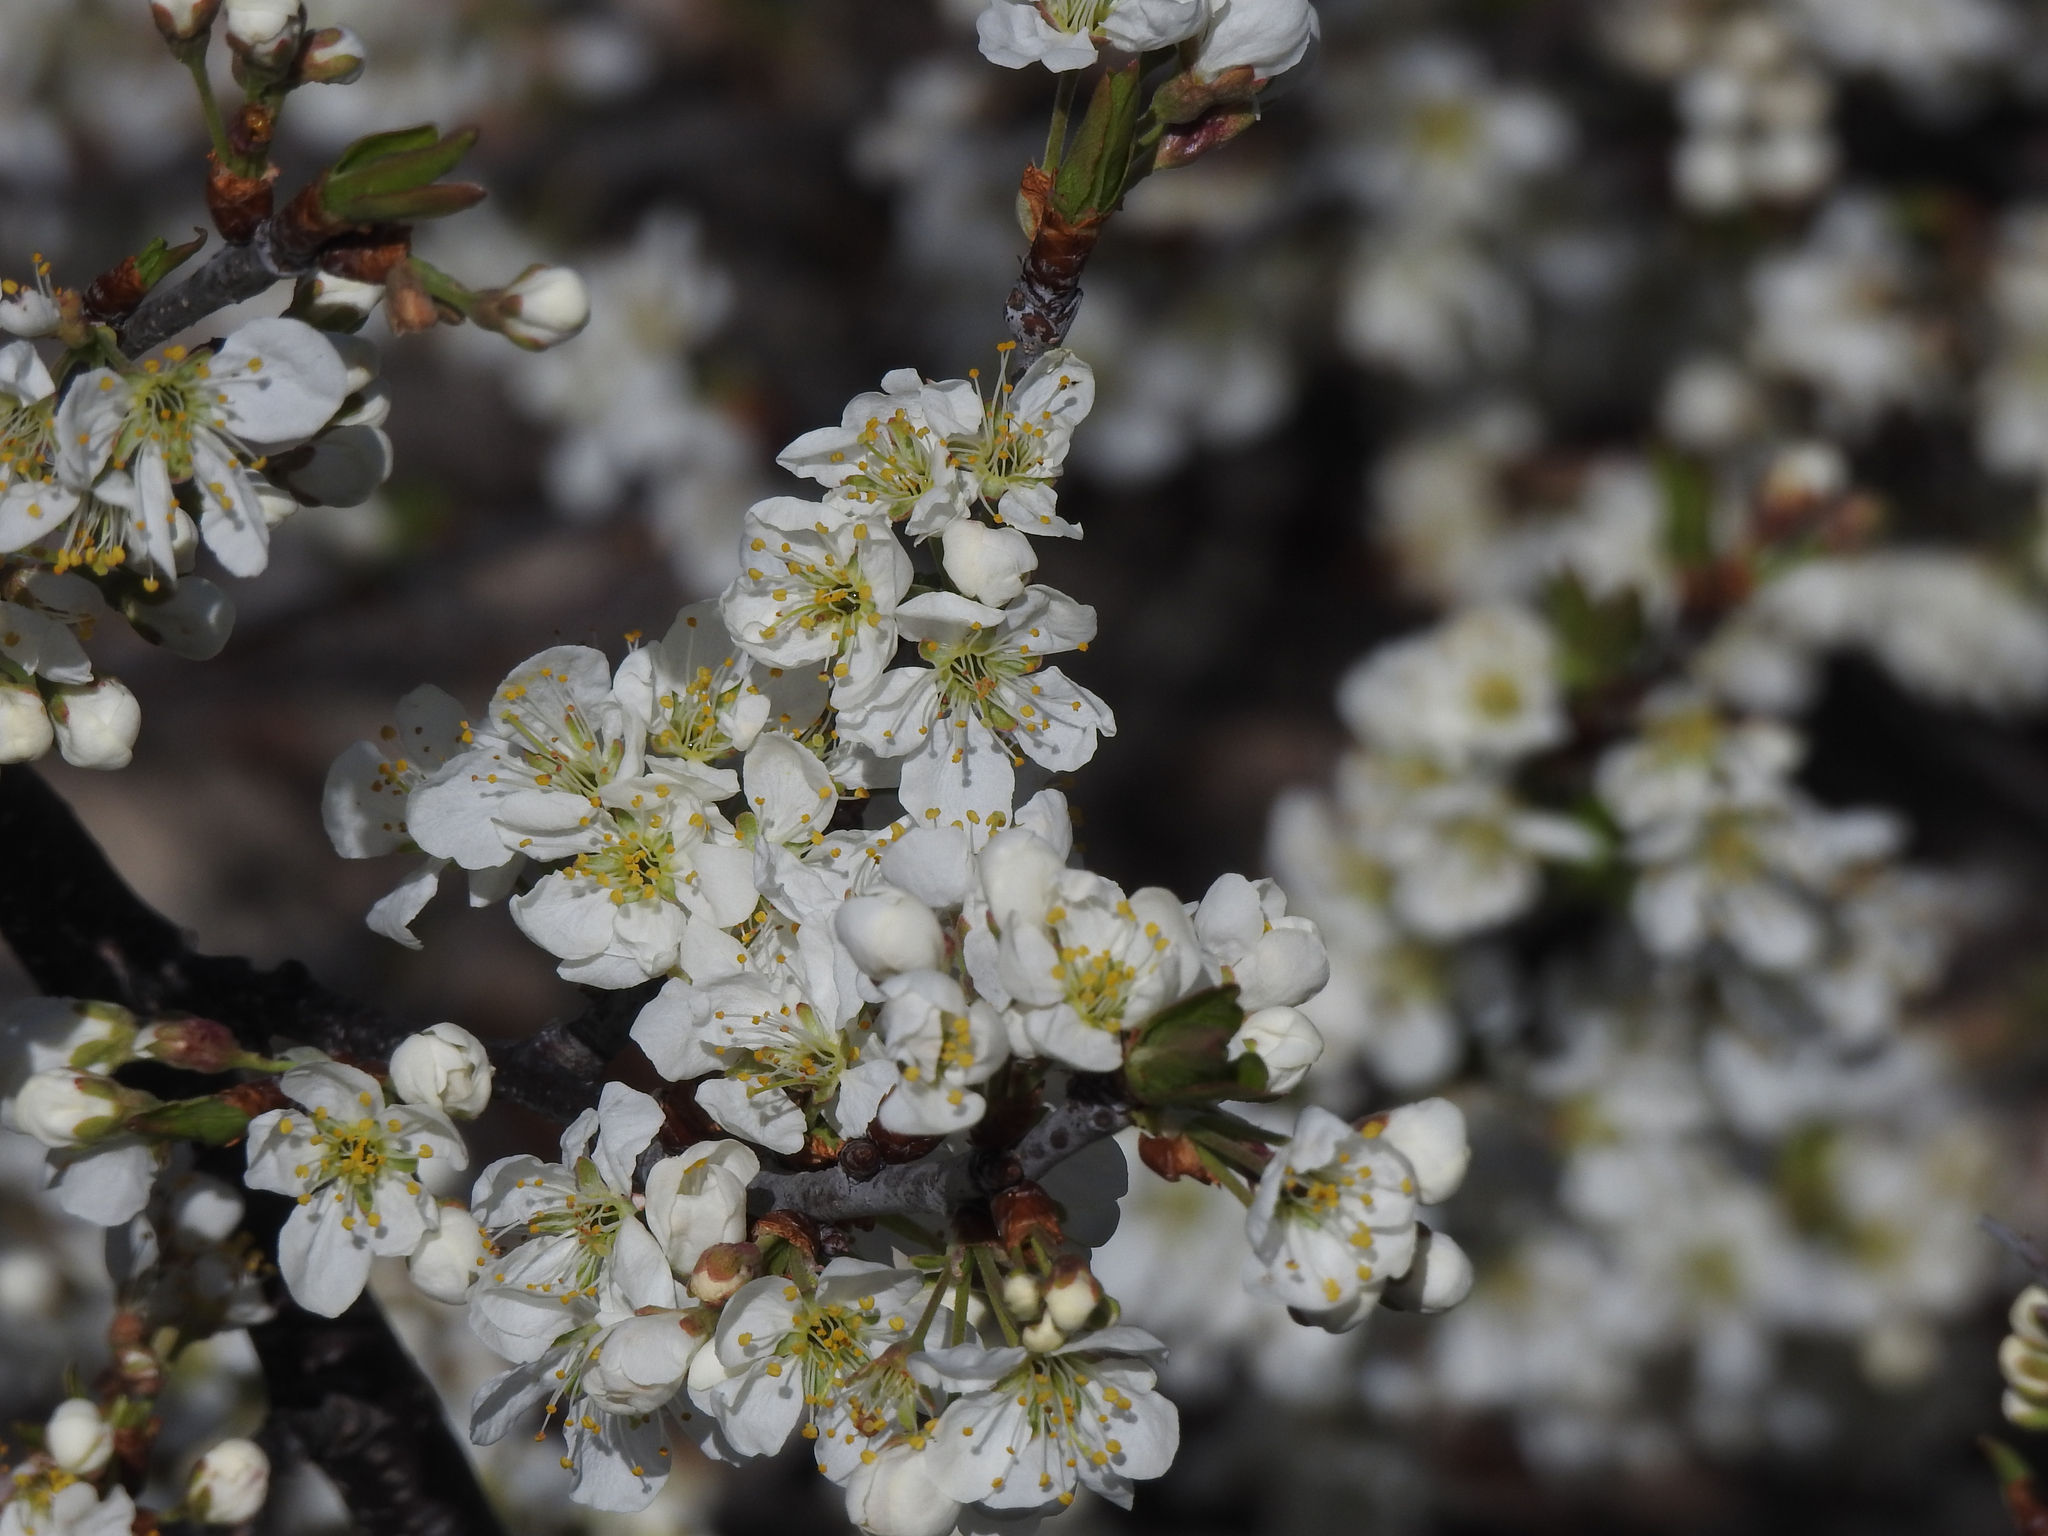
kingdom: Plantae
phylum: Tracheophyta
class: Magnoliopsida
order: Rosales
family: Rosaceae
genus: Prunus
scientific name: Prunus maritima
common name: Beach plum
